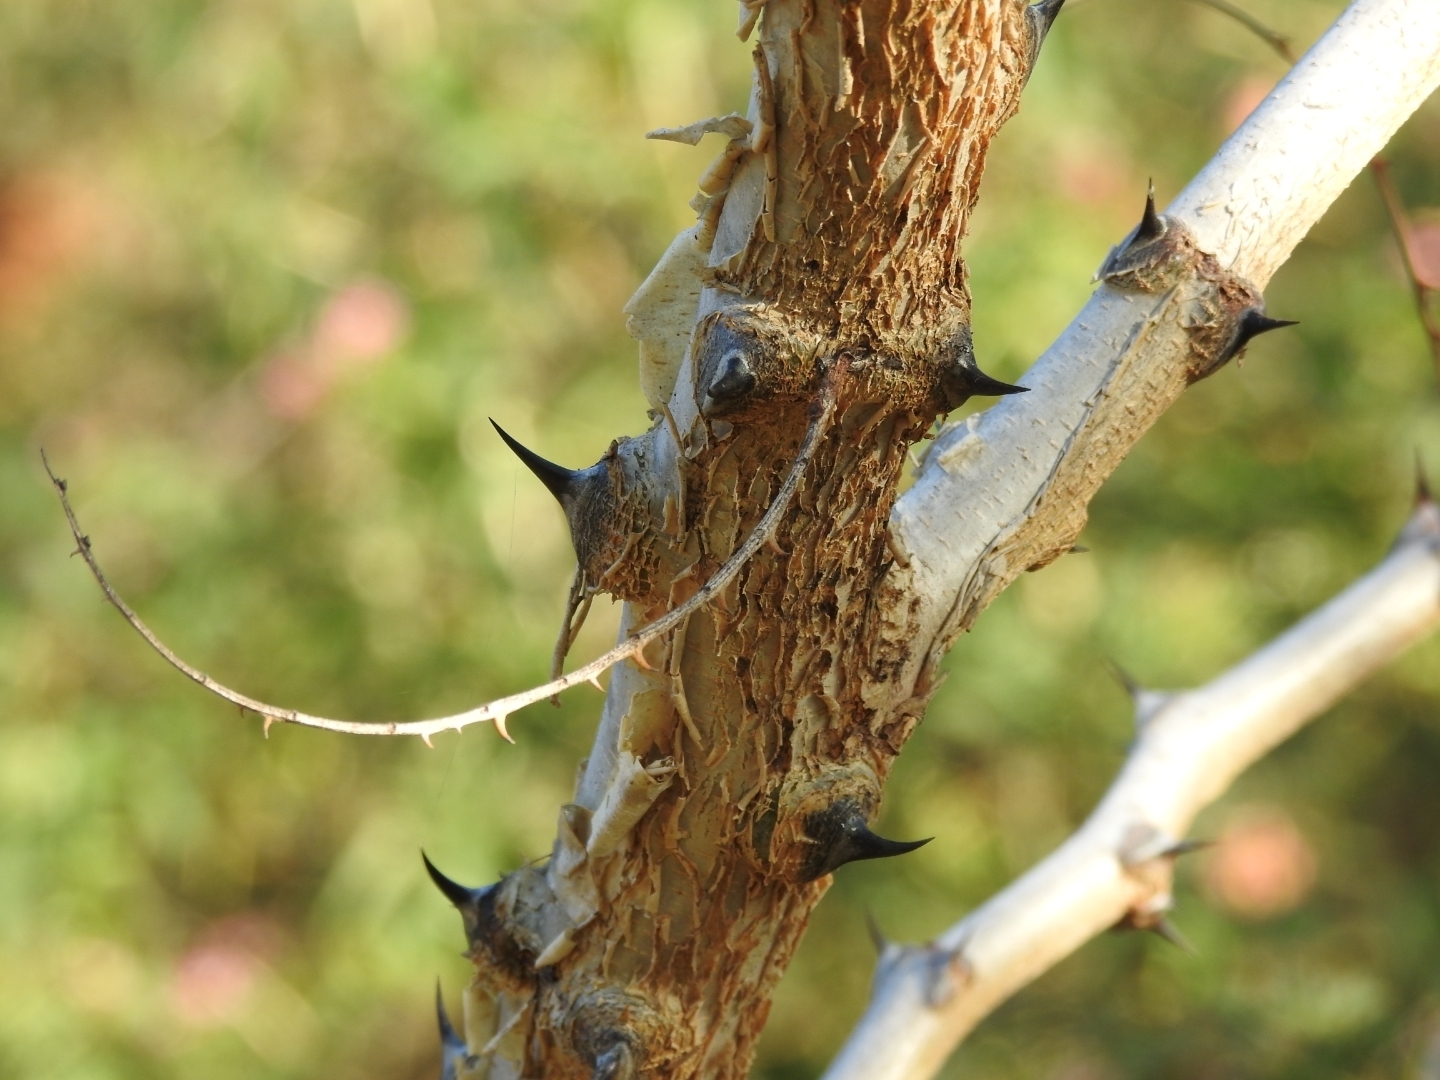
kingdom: Plantae
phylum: Tracheophyta
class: Magnoliopsida
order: Fabales
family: Fabaceae
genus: Senegalia
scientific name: Senegalia polyacantha
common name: Whitethorn
